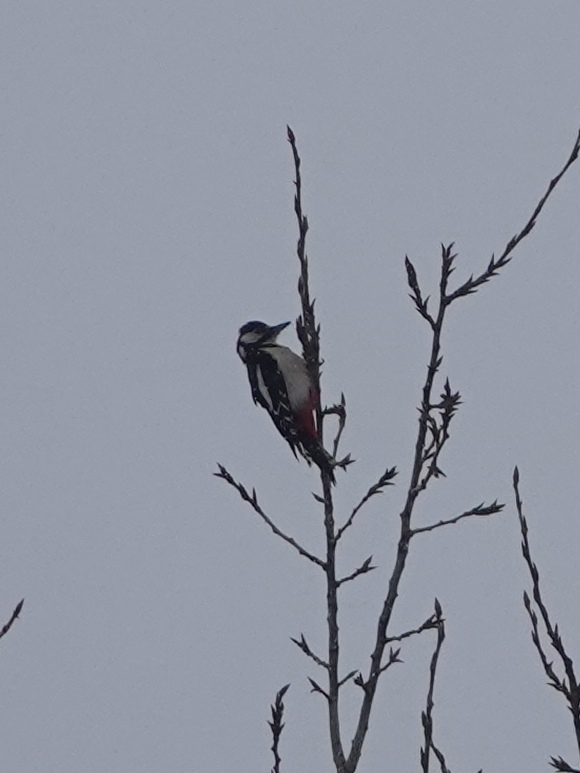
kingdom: Animalia
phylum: Chordata
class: Aves
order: Piciformes
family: Picidae
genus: Dendrocopos
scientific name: Dendrocopos major
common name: Great spotted woodpecker
